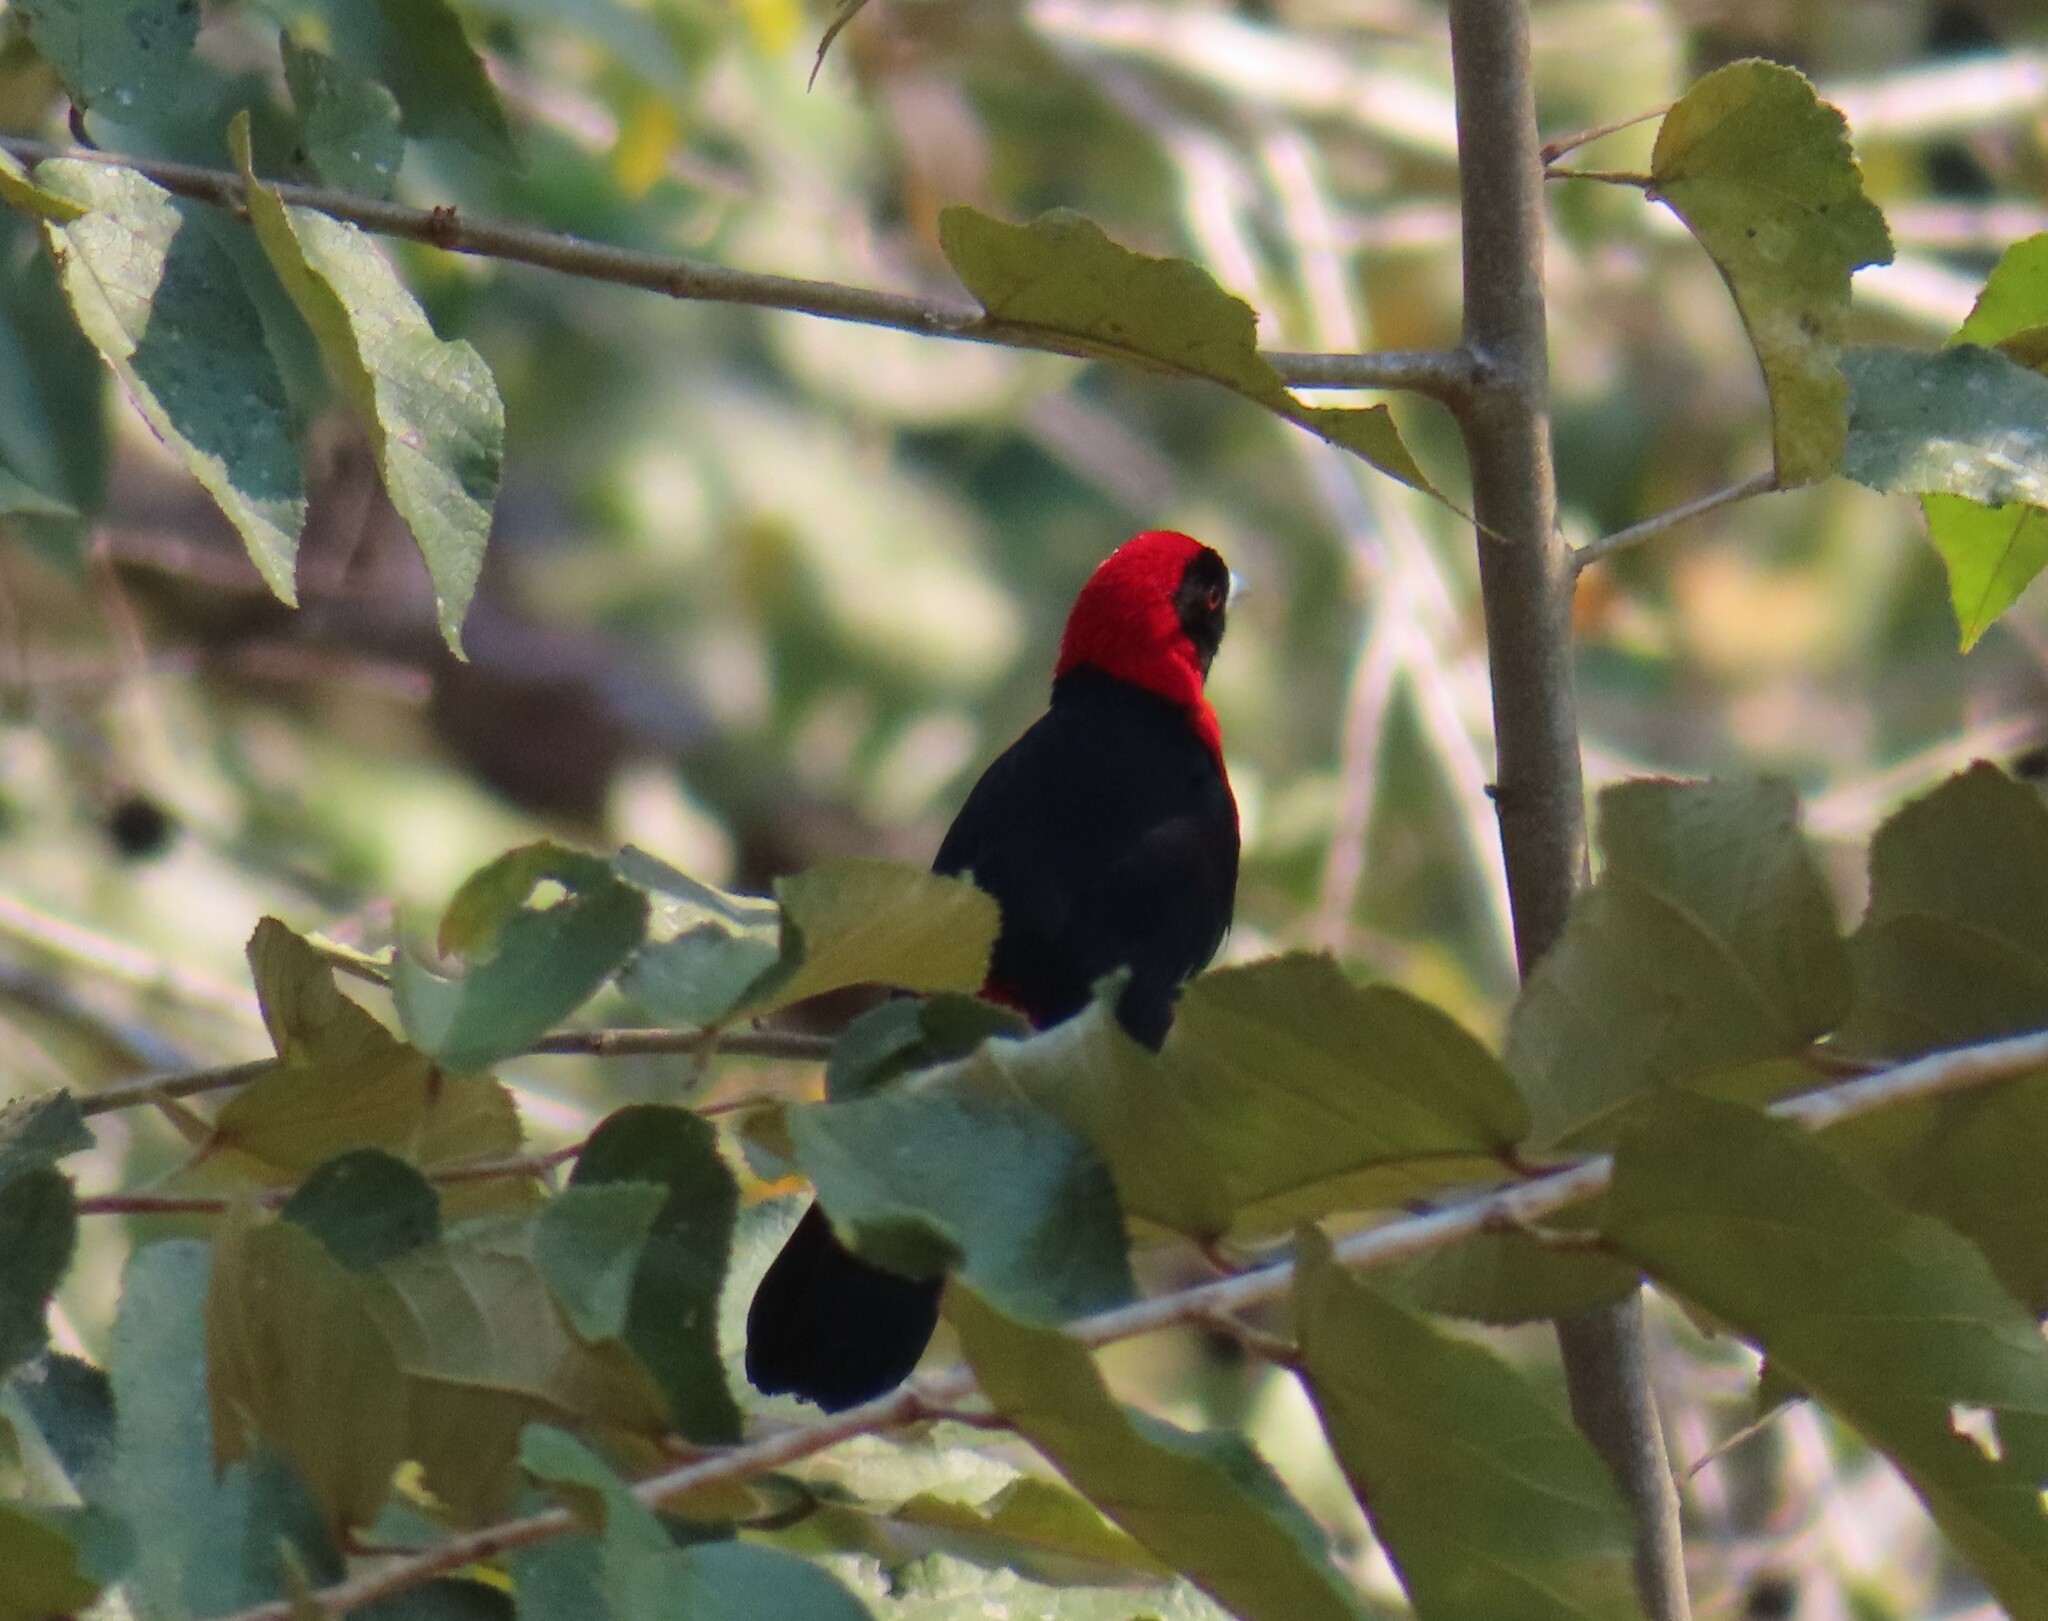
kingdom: Animalia
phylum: Chordata
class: Aves
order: Passeriformes
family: Thraupidae
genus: Ramphocelus
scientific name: Ramphocelus sanguinolentus
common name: Crimson-collared tanager
